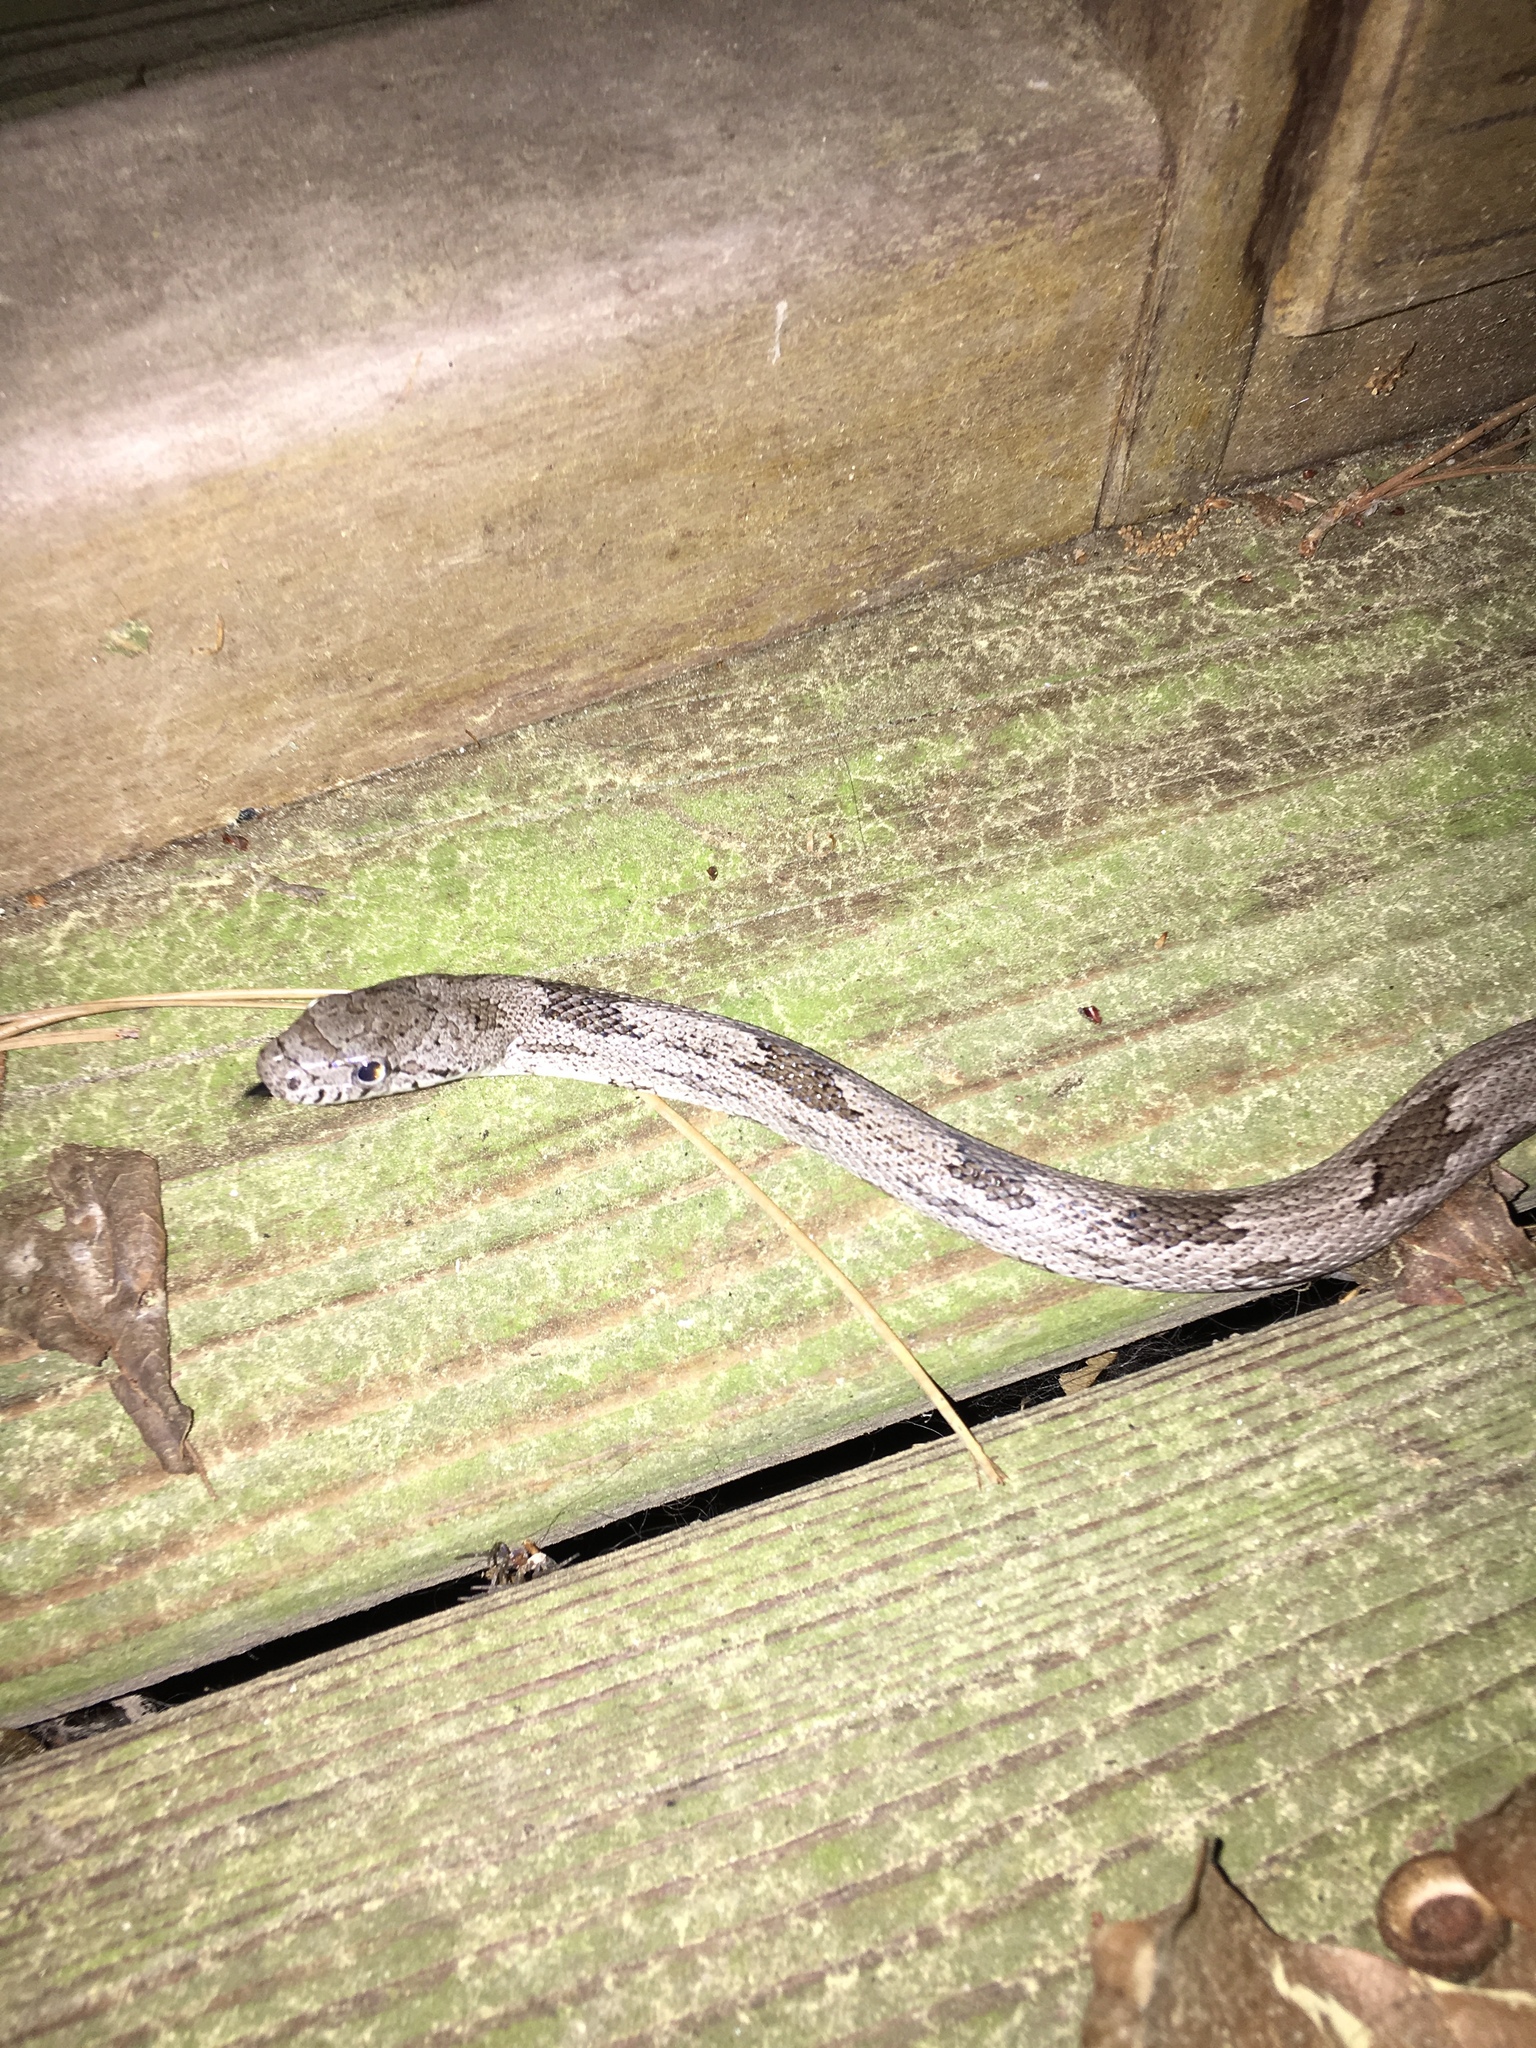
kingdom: Animalia
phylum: Chordata
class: Squamata
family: Colubridae
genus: Pantherophis
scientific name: Pantherophis spiloides
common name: Gray rat snake
